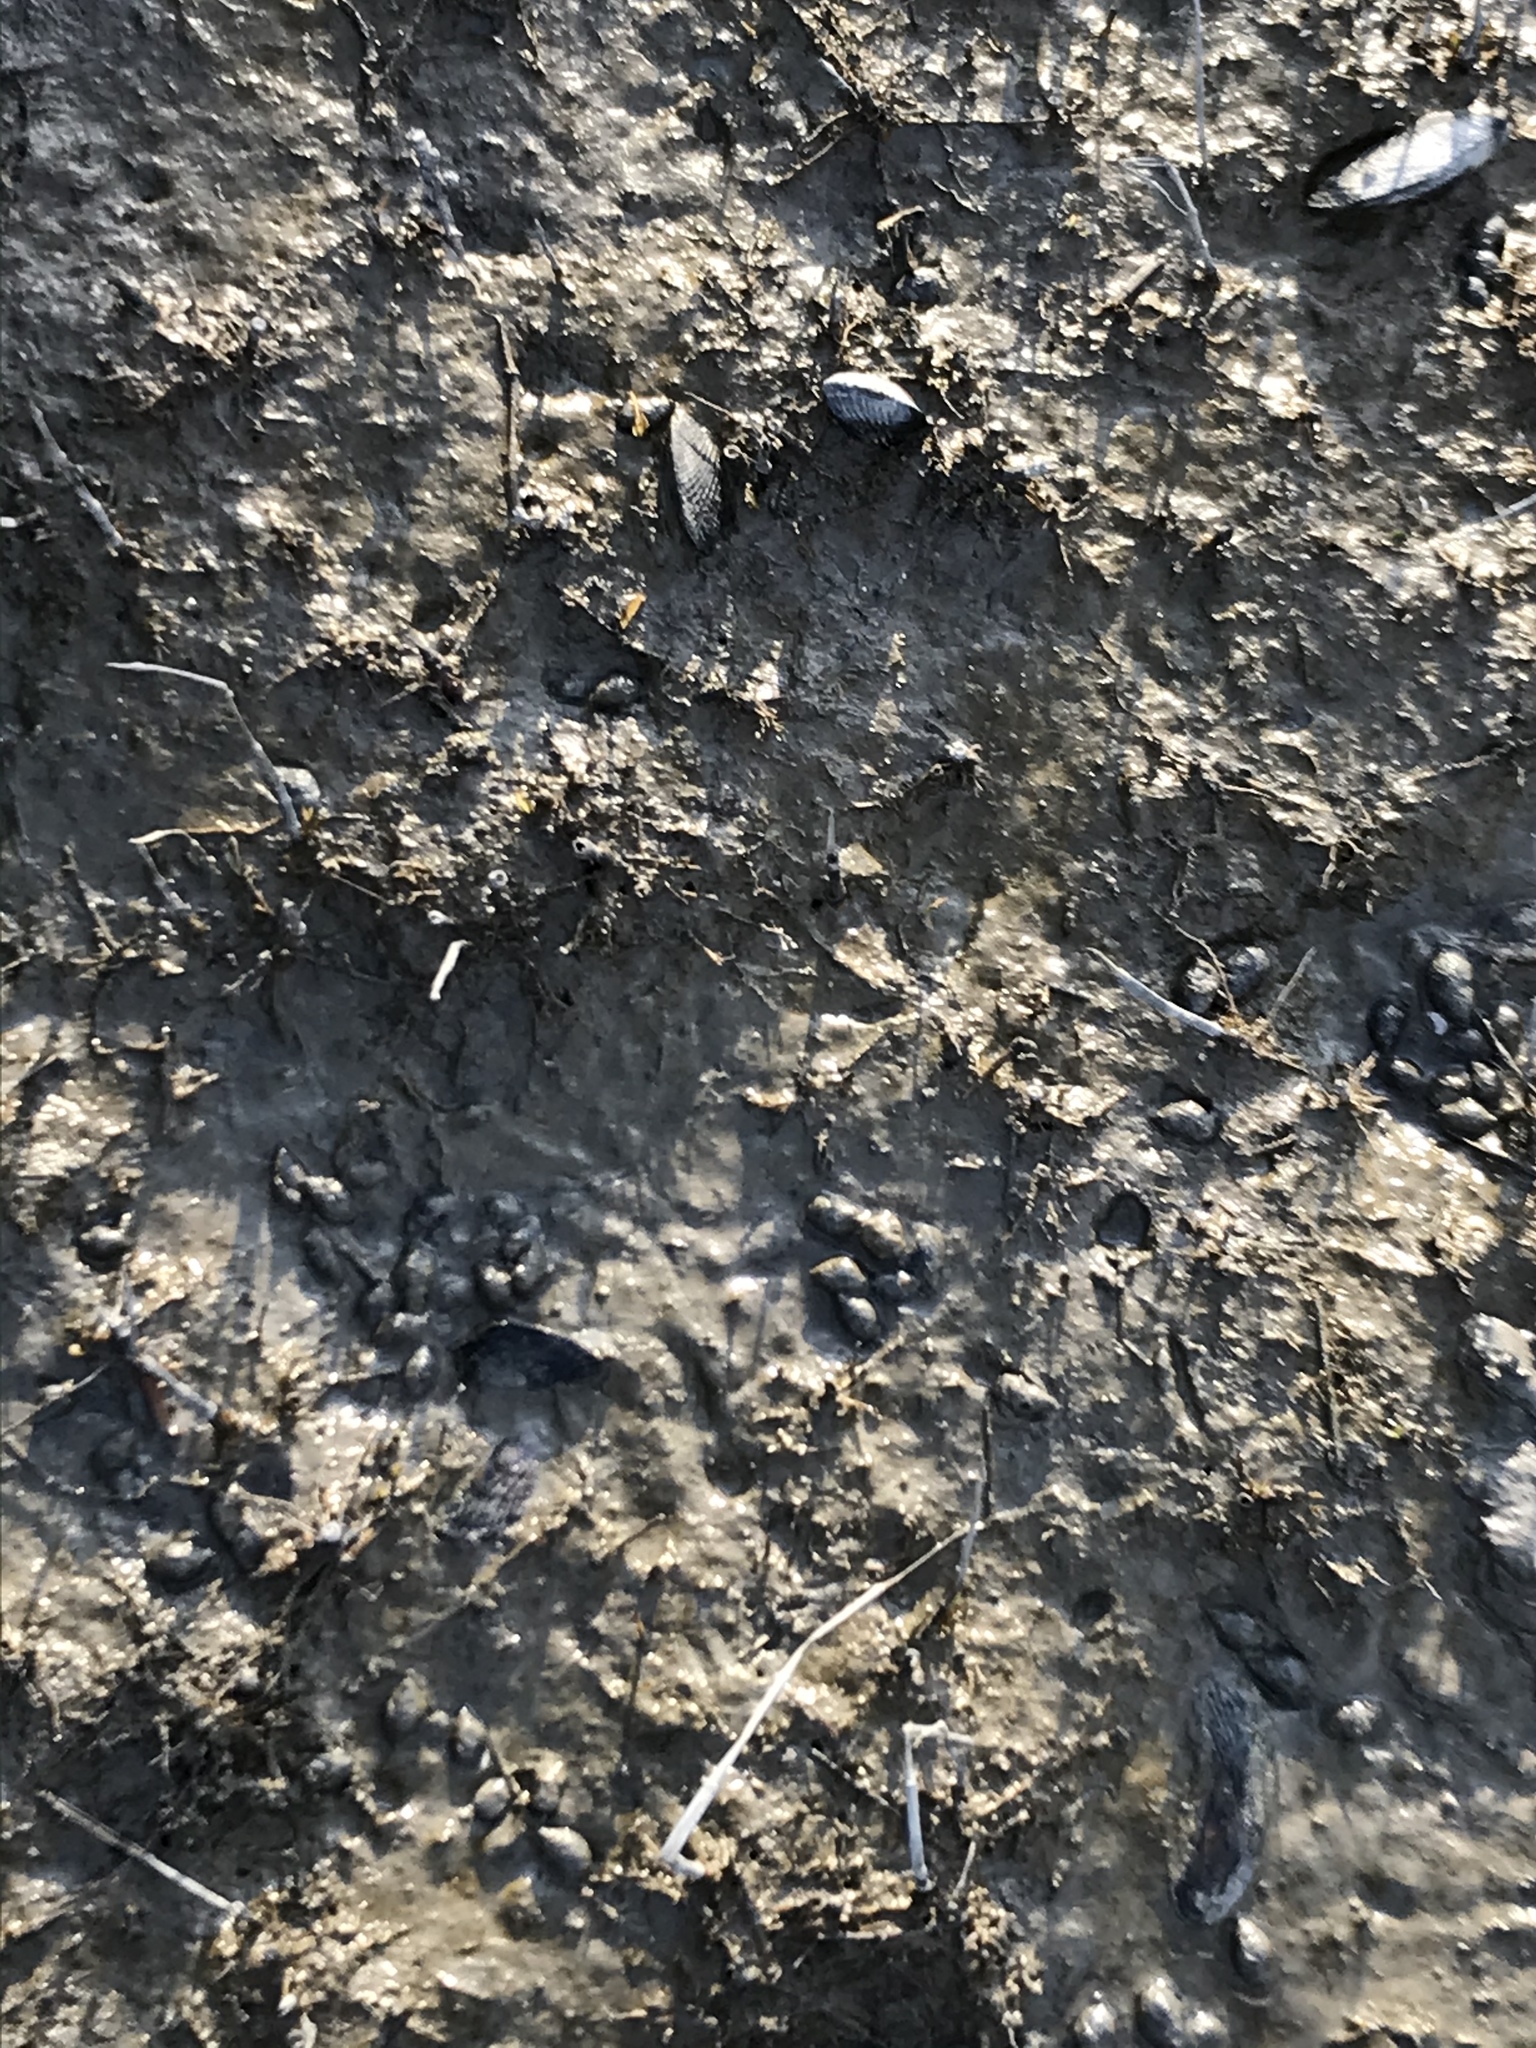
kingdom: Animalia
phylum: Mollusca
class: Bivalvia
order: Mytilida
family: Mytilidae
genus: Geukensia
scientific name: Geukensia demissa
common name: Ribbed mussel
